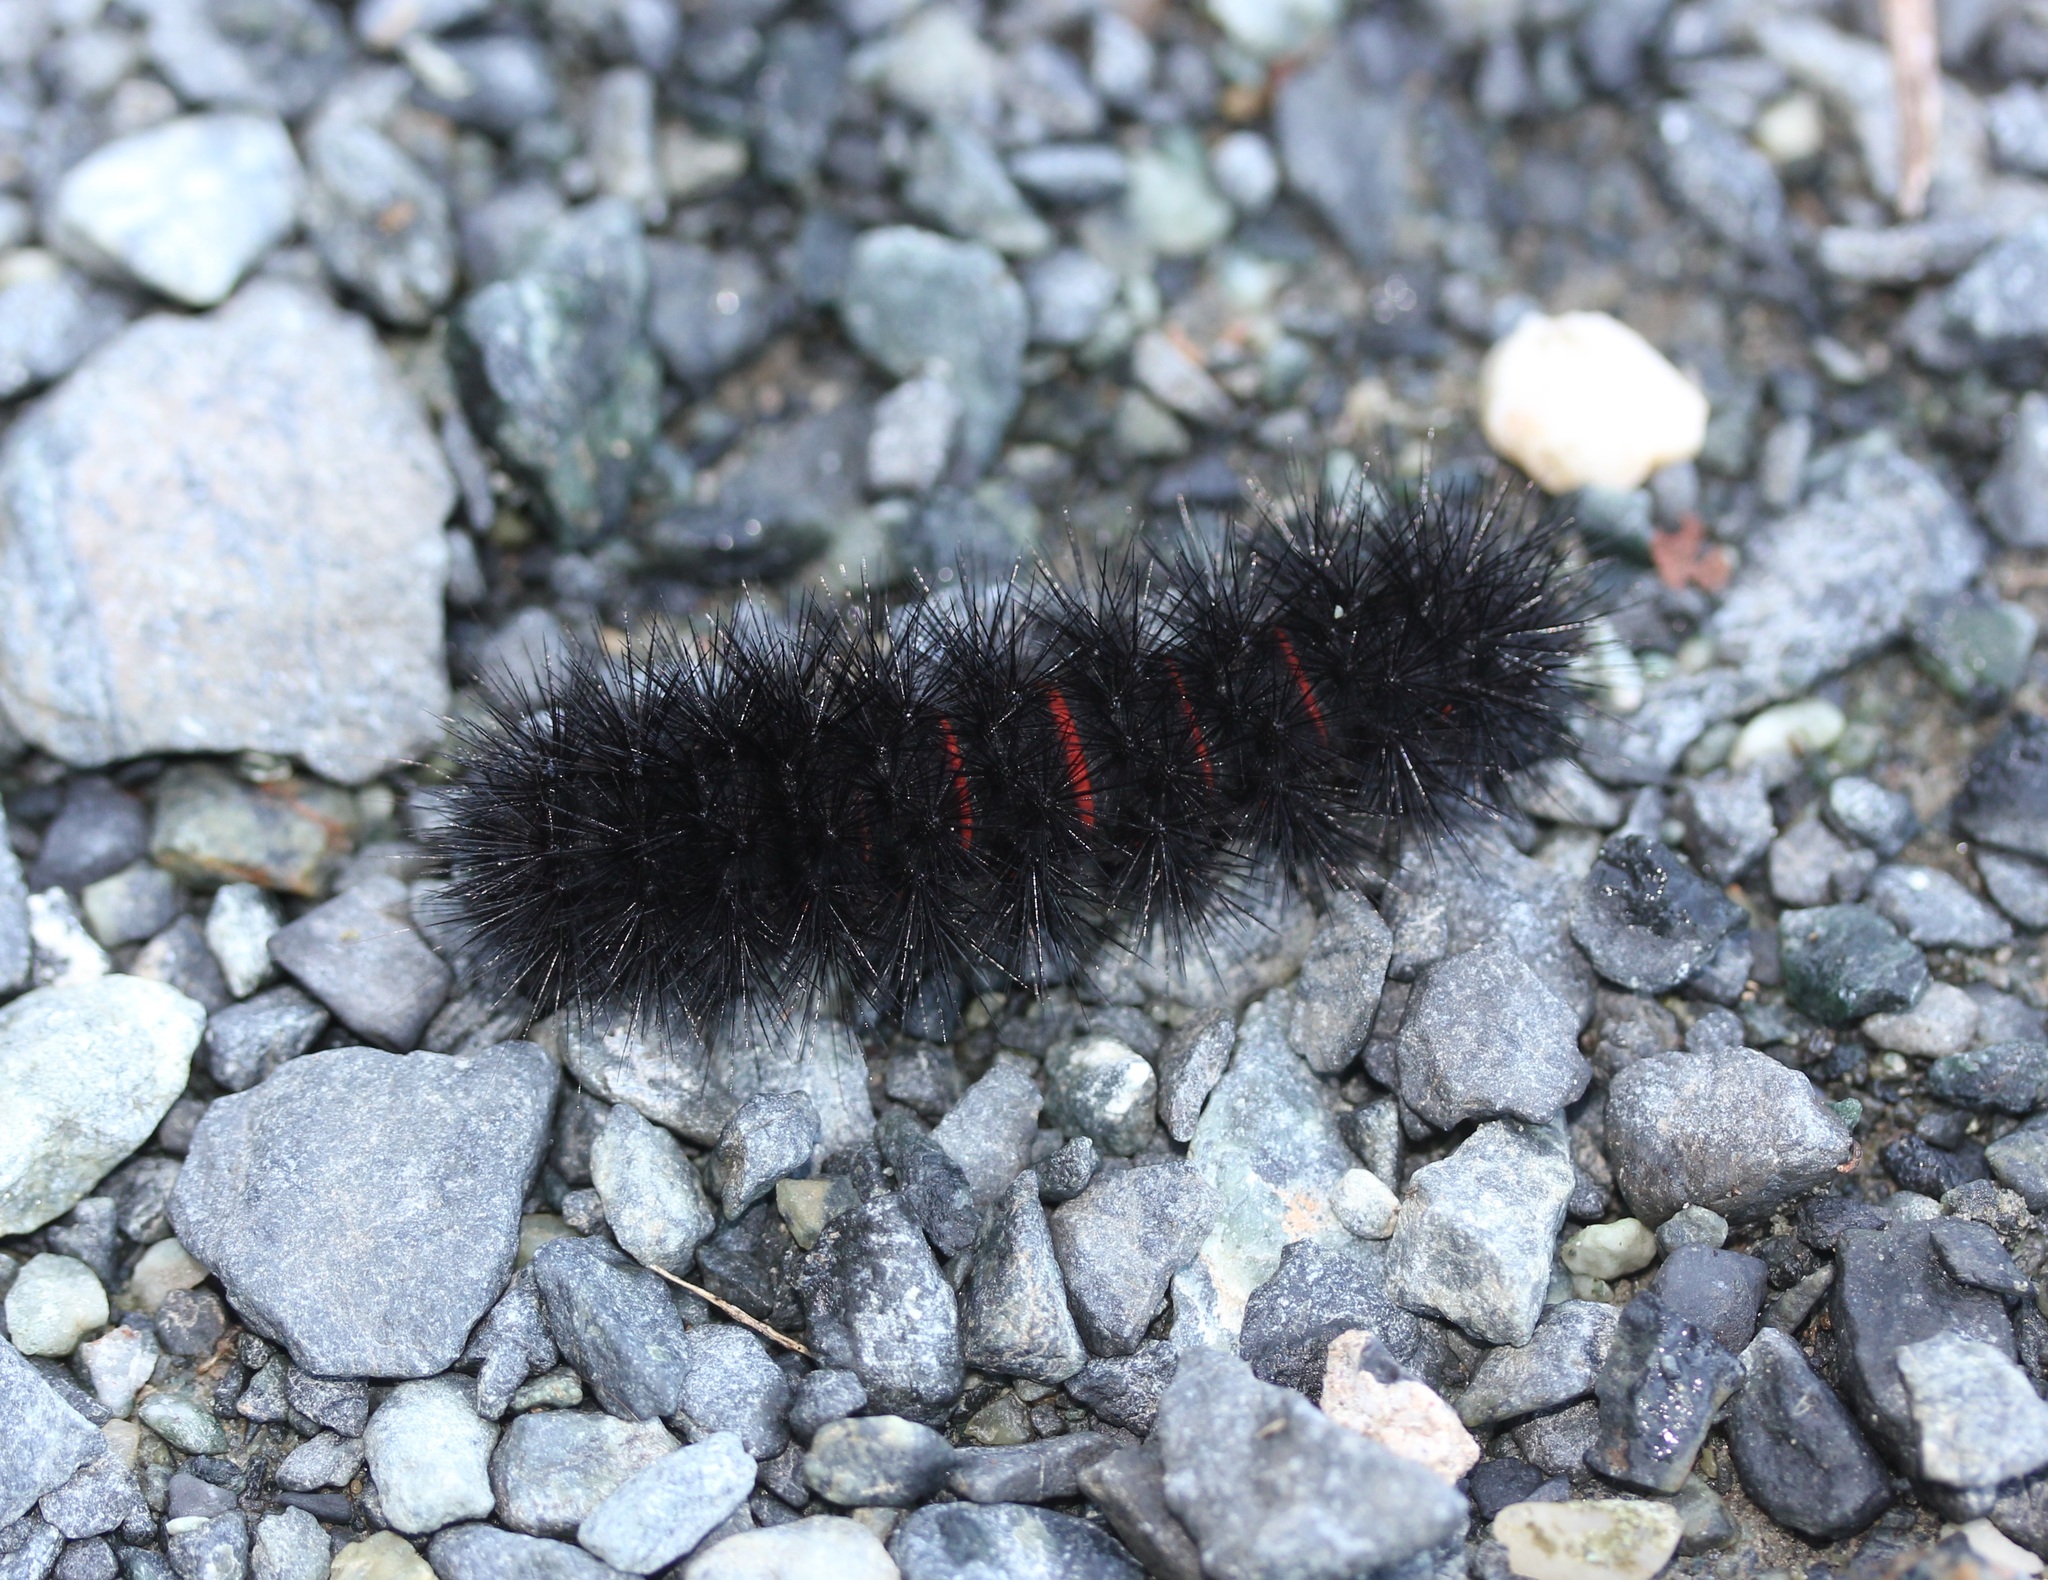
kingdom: Animalia
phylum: Arthropoda
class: Insecta
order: Lepidoptera
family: Erebidae
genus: Hypercompe
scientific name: Hypercompe scribonia
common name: Giant leopard moth
